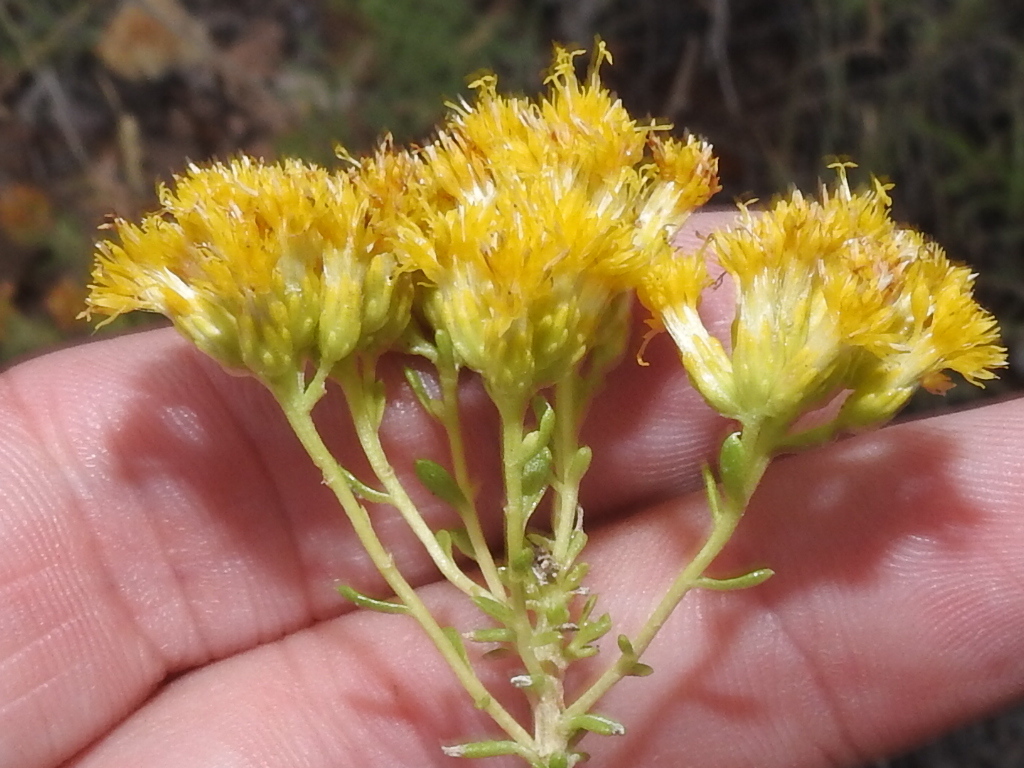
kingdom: Plantae
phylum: Tracheophyta
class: Magnoliopsida
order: Asterales
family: Asteraceae
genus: Isocoma
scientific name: Isocoma pluriflora
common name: Southern jimmyweed
